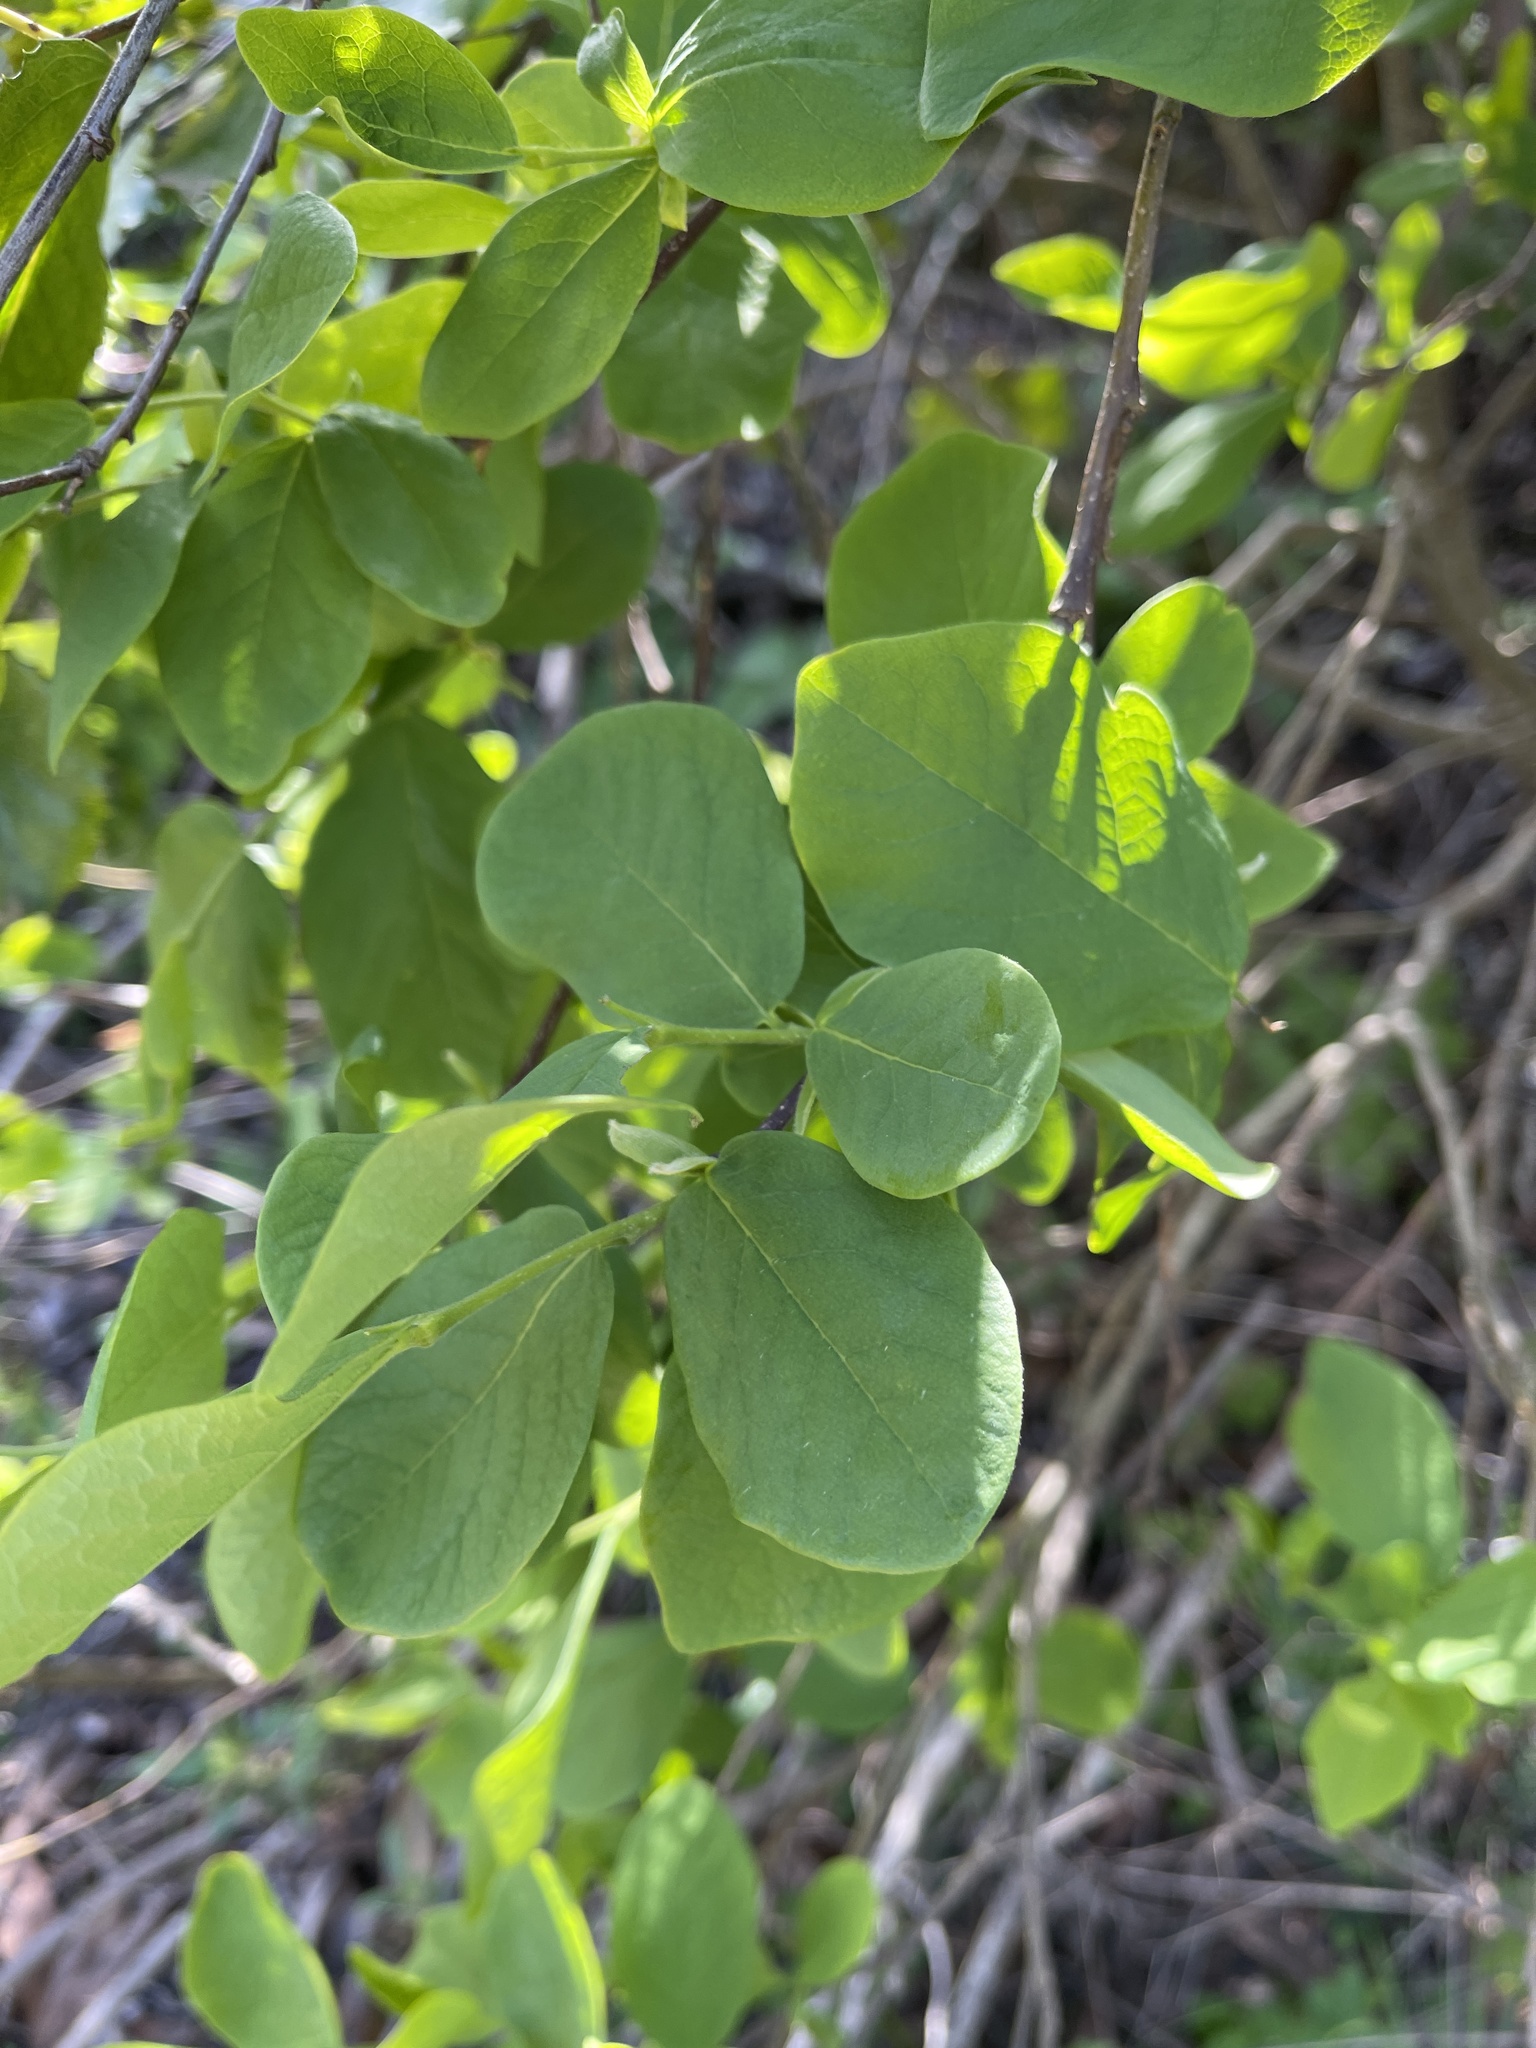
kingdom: Plantae
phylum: Tracheophyta
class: Magnoliopsida
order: Malvales
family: Thymelaeaceae
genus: Dirca
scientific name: Dirca occidentalis
